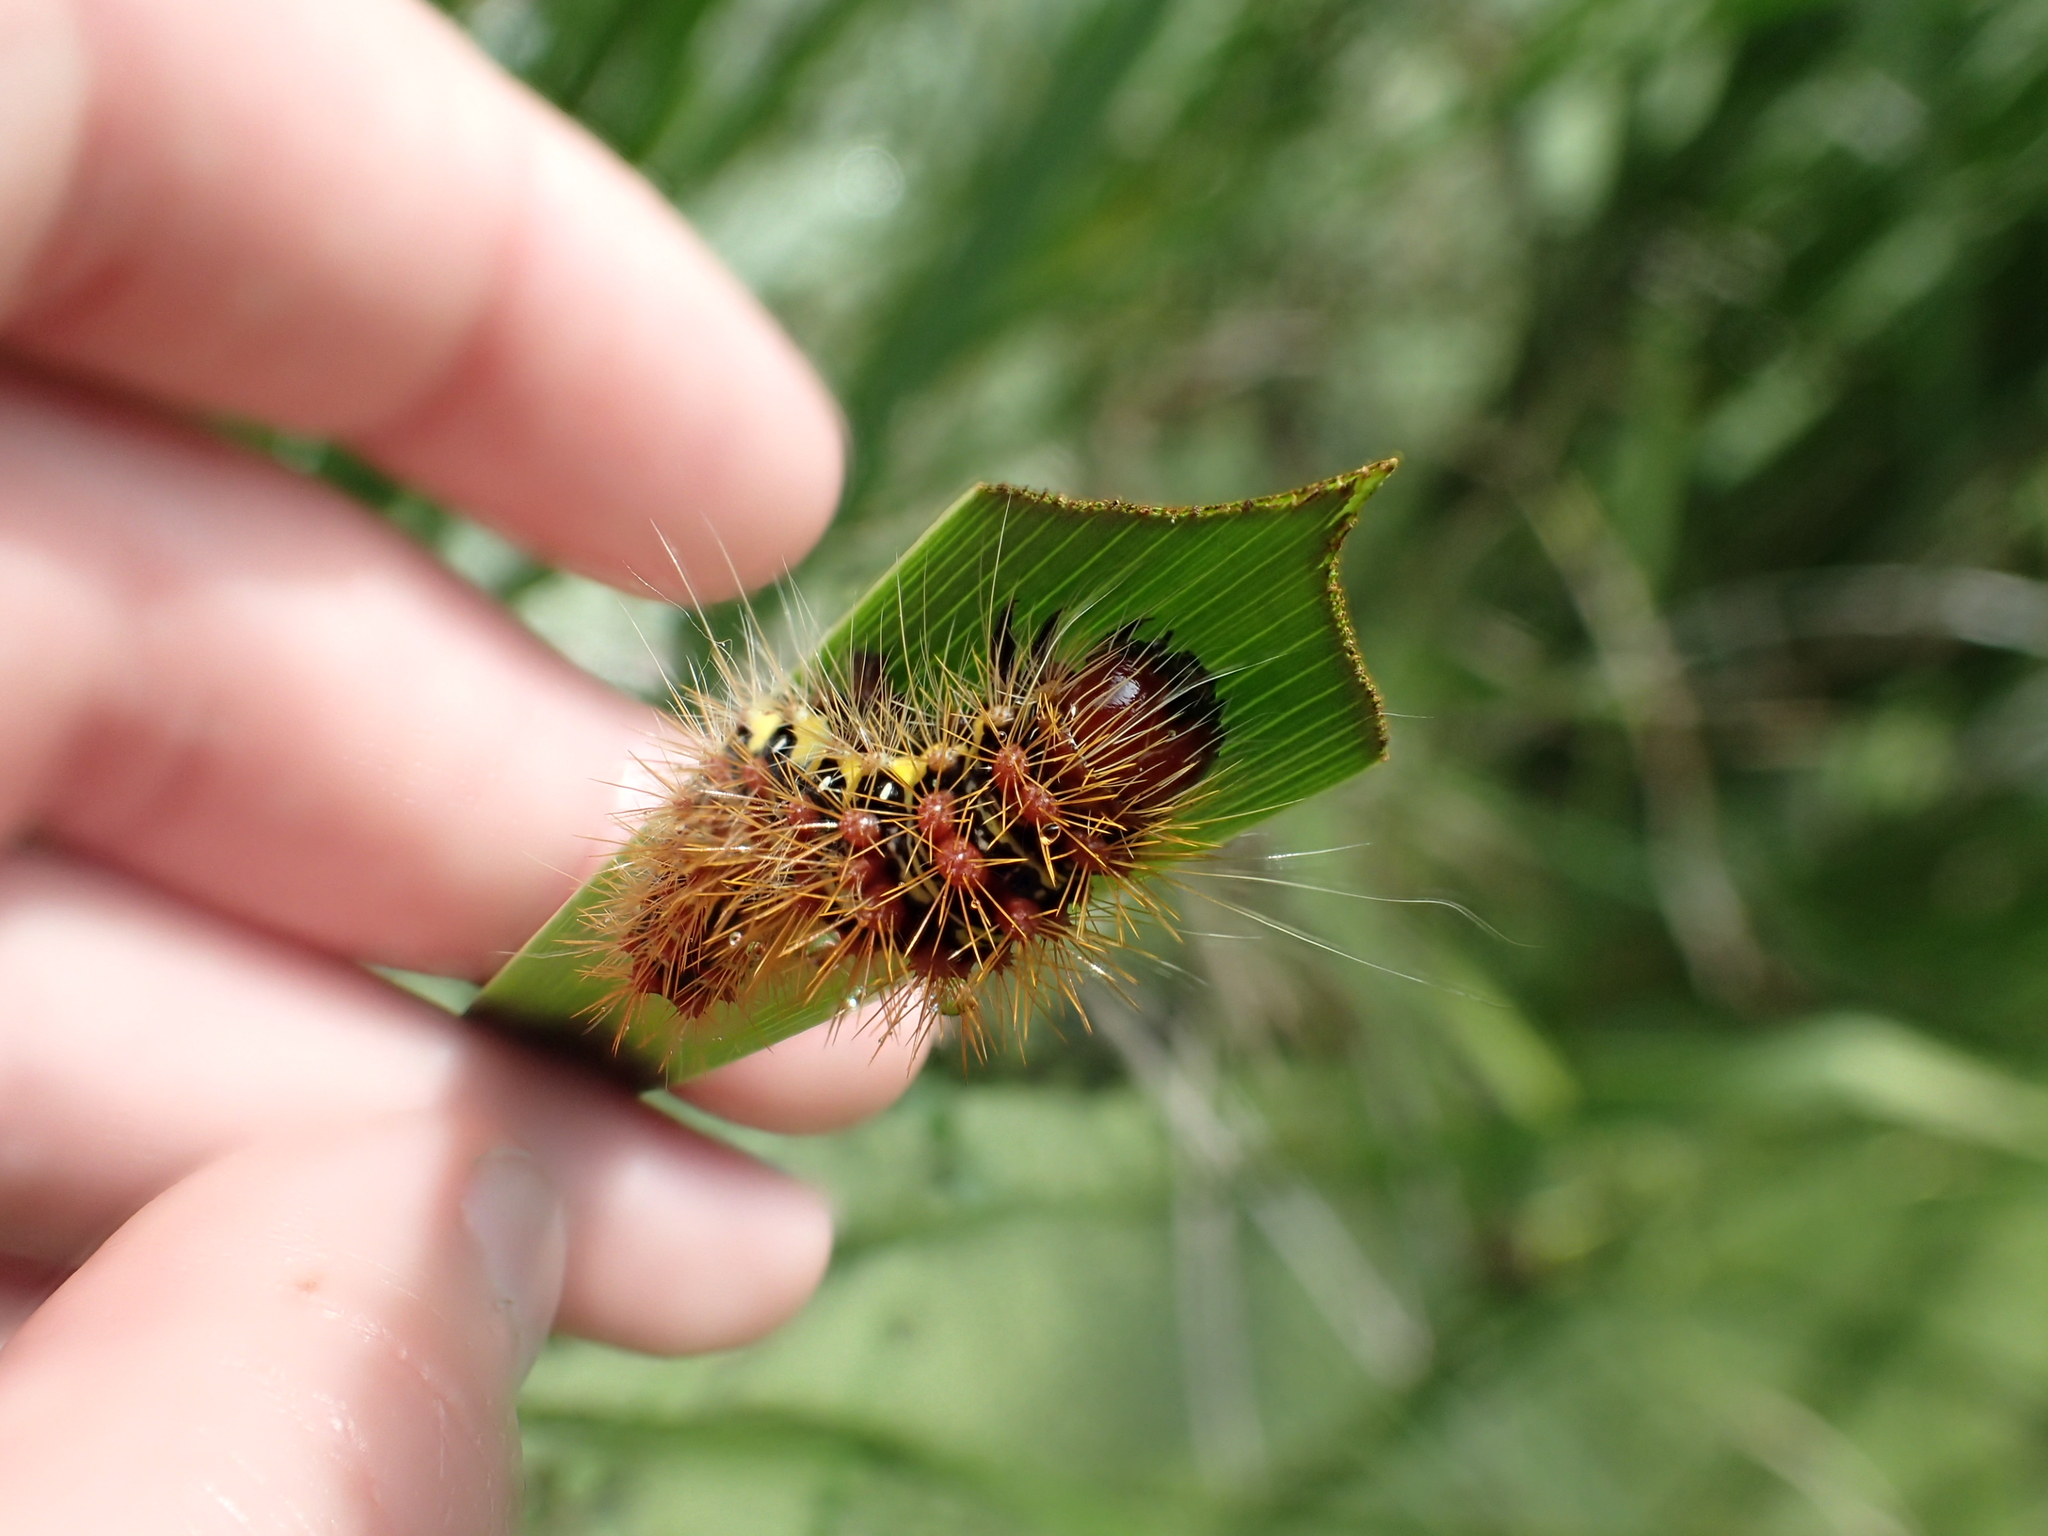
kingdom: Animalia
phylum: Arthropoda
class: Insecta
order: Lepidoptera
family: Noctuidae
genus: Acronicta
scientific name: Acronicta oblinita
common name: Smeared dagger
